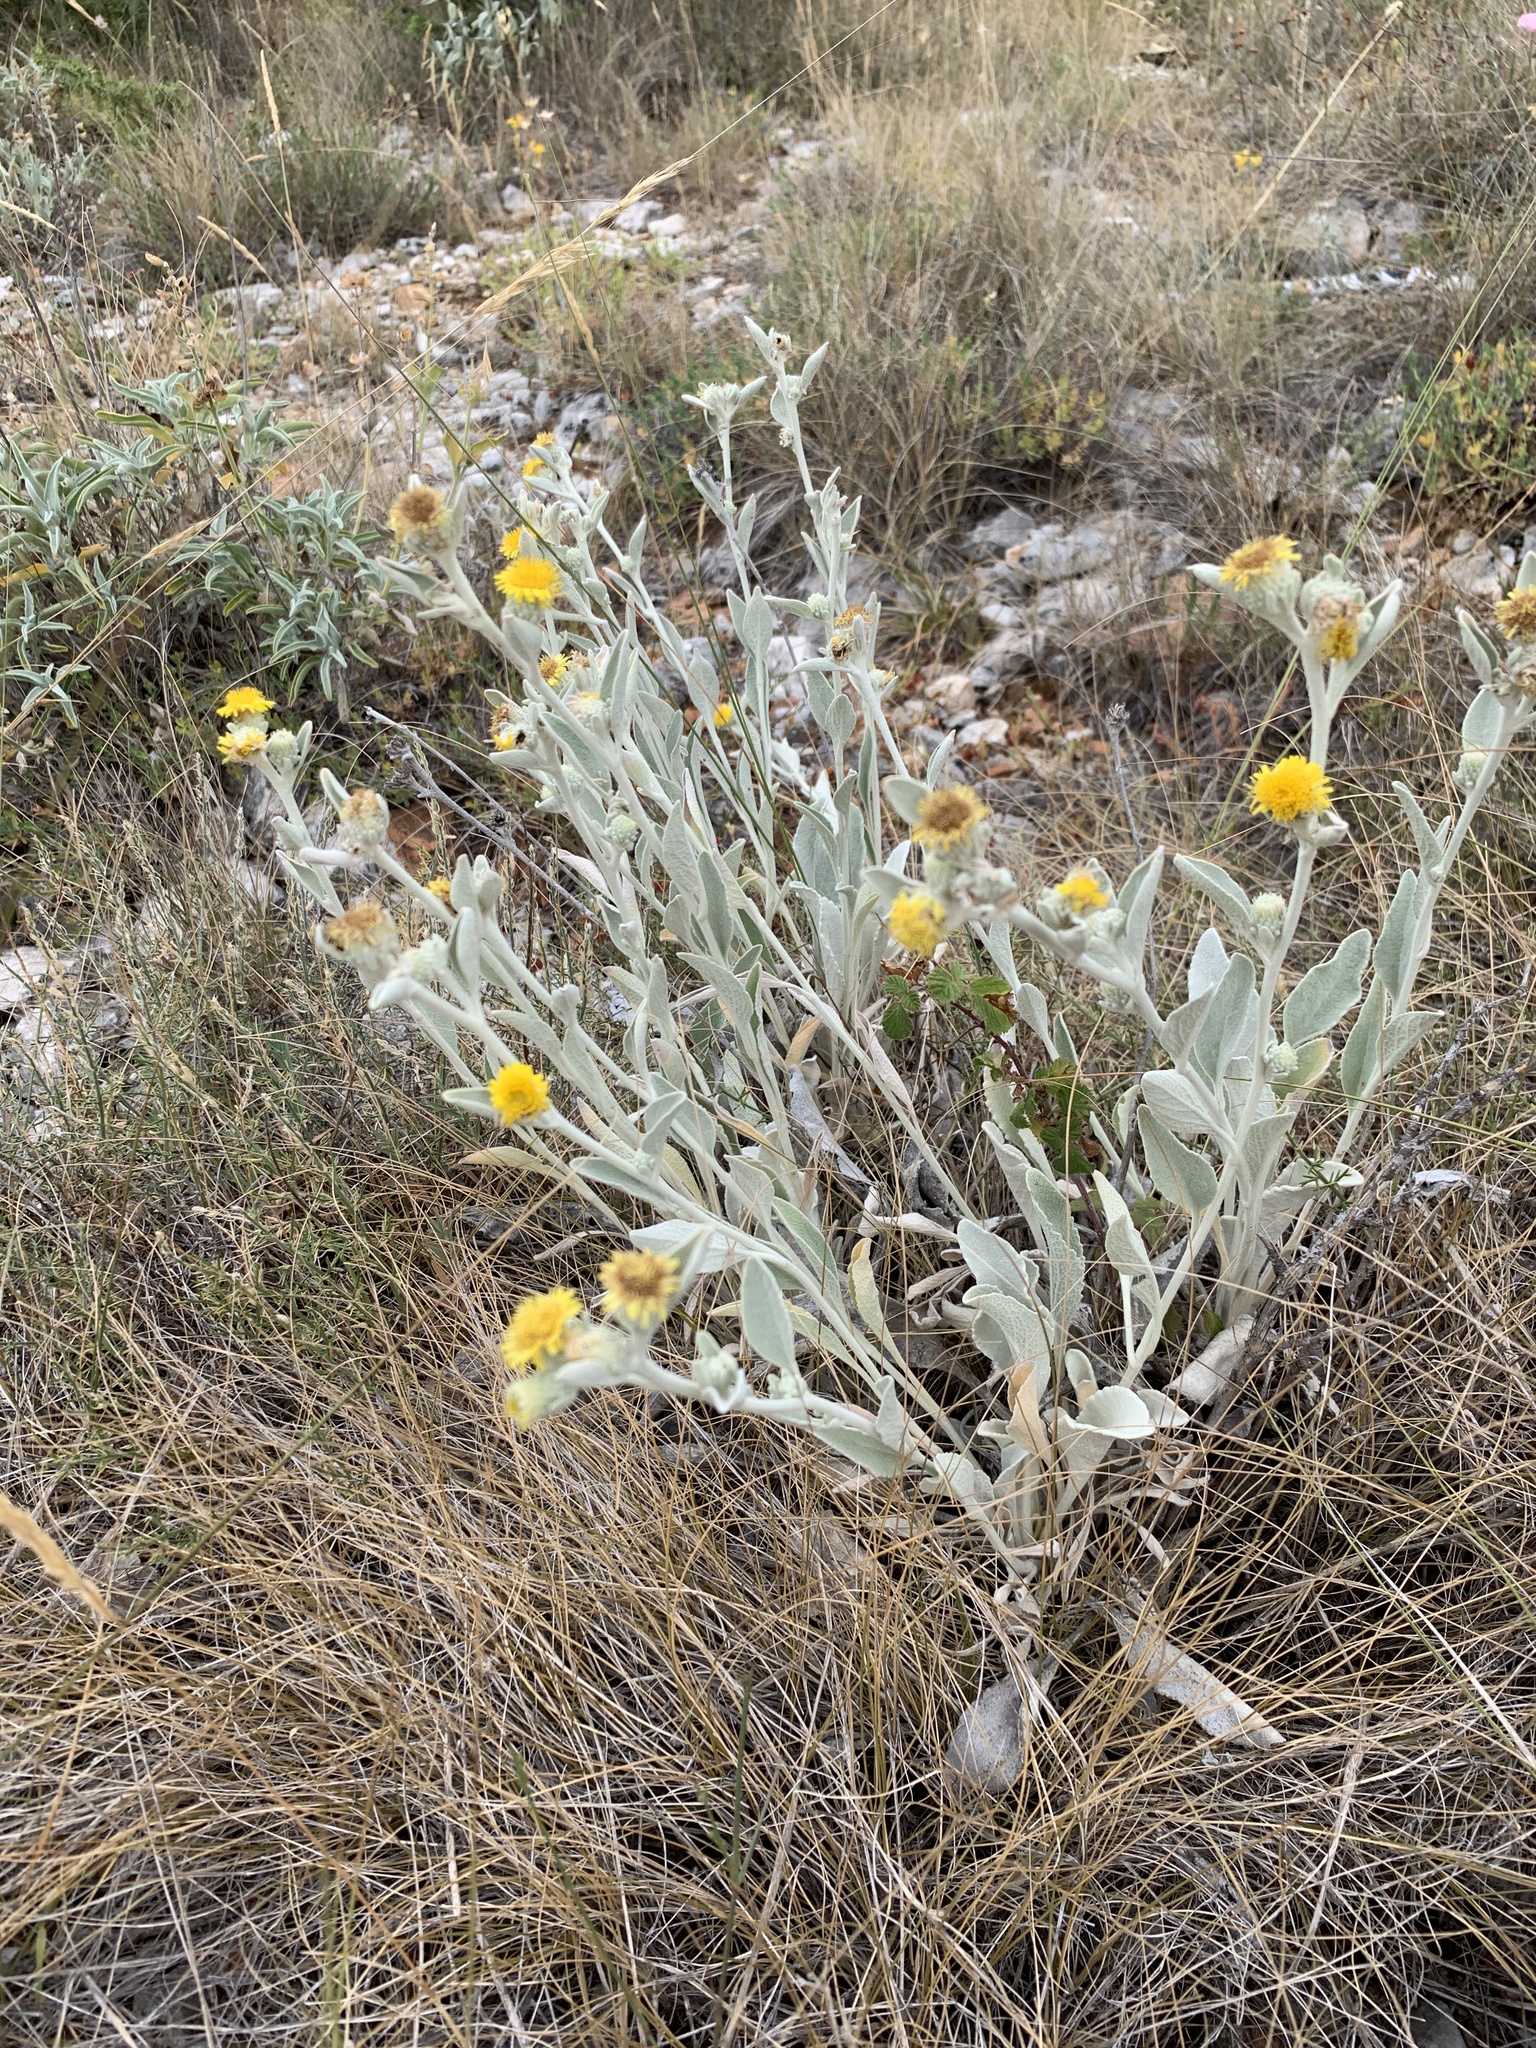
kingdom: Plantae
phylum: Tracheophyta
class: Magnoliopsida
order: Asterales
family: Asteraceae
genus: Pentanema
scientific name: Pentanema verbascifolium
